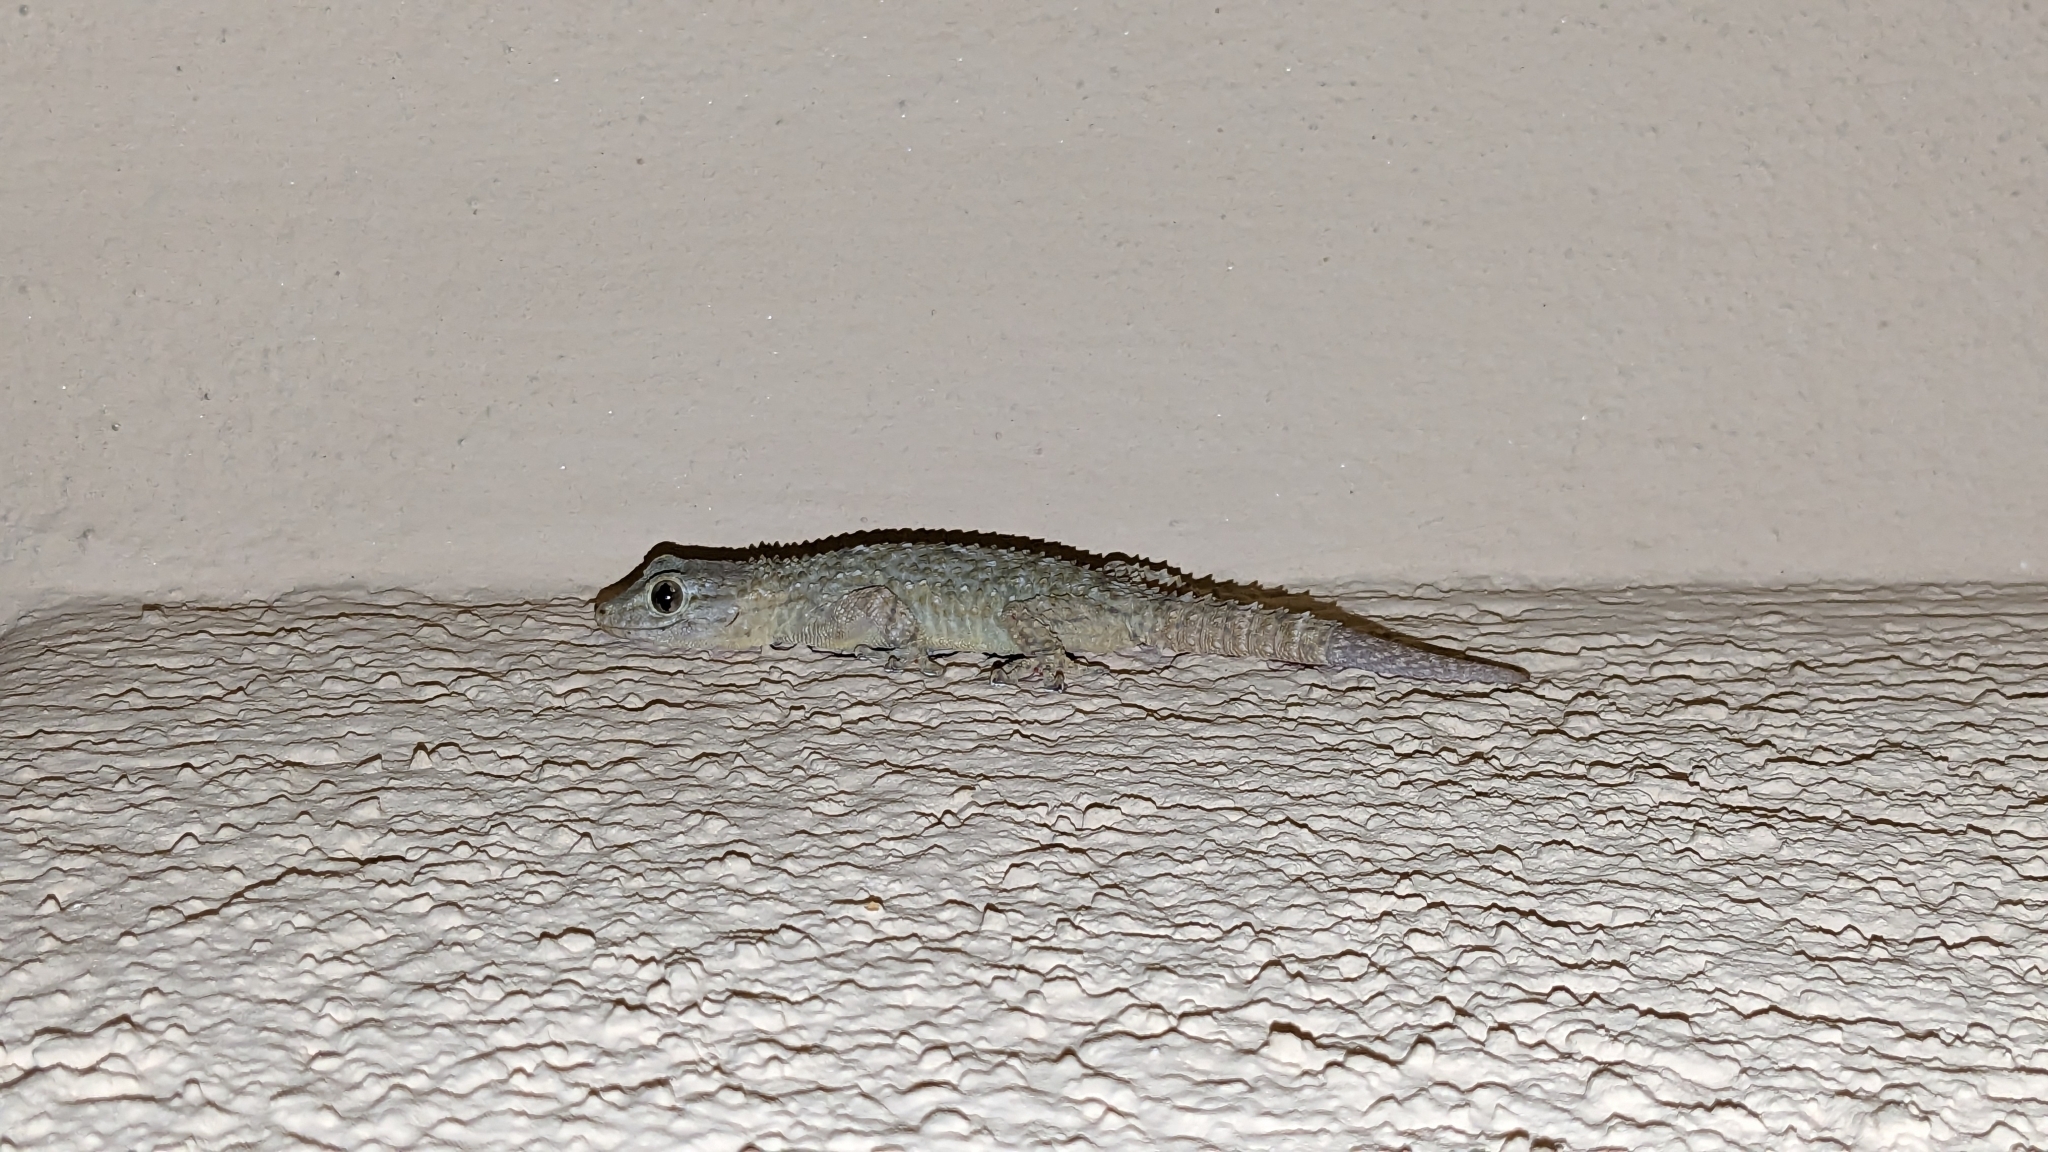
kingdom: Animalia
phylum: Chordata
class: Squamata
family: Phyllodactylidae
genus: Tarentola
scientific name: Tarentola mauritanica
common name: Moorish gecko
